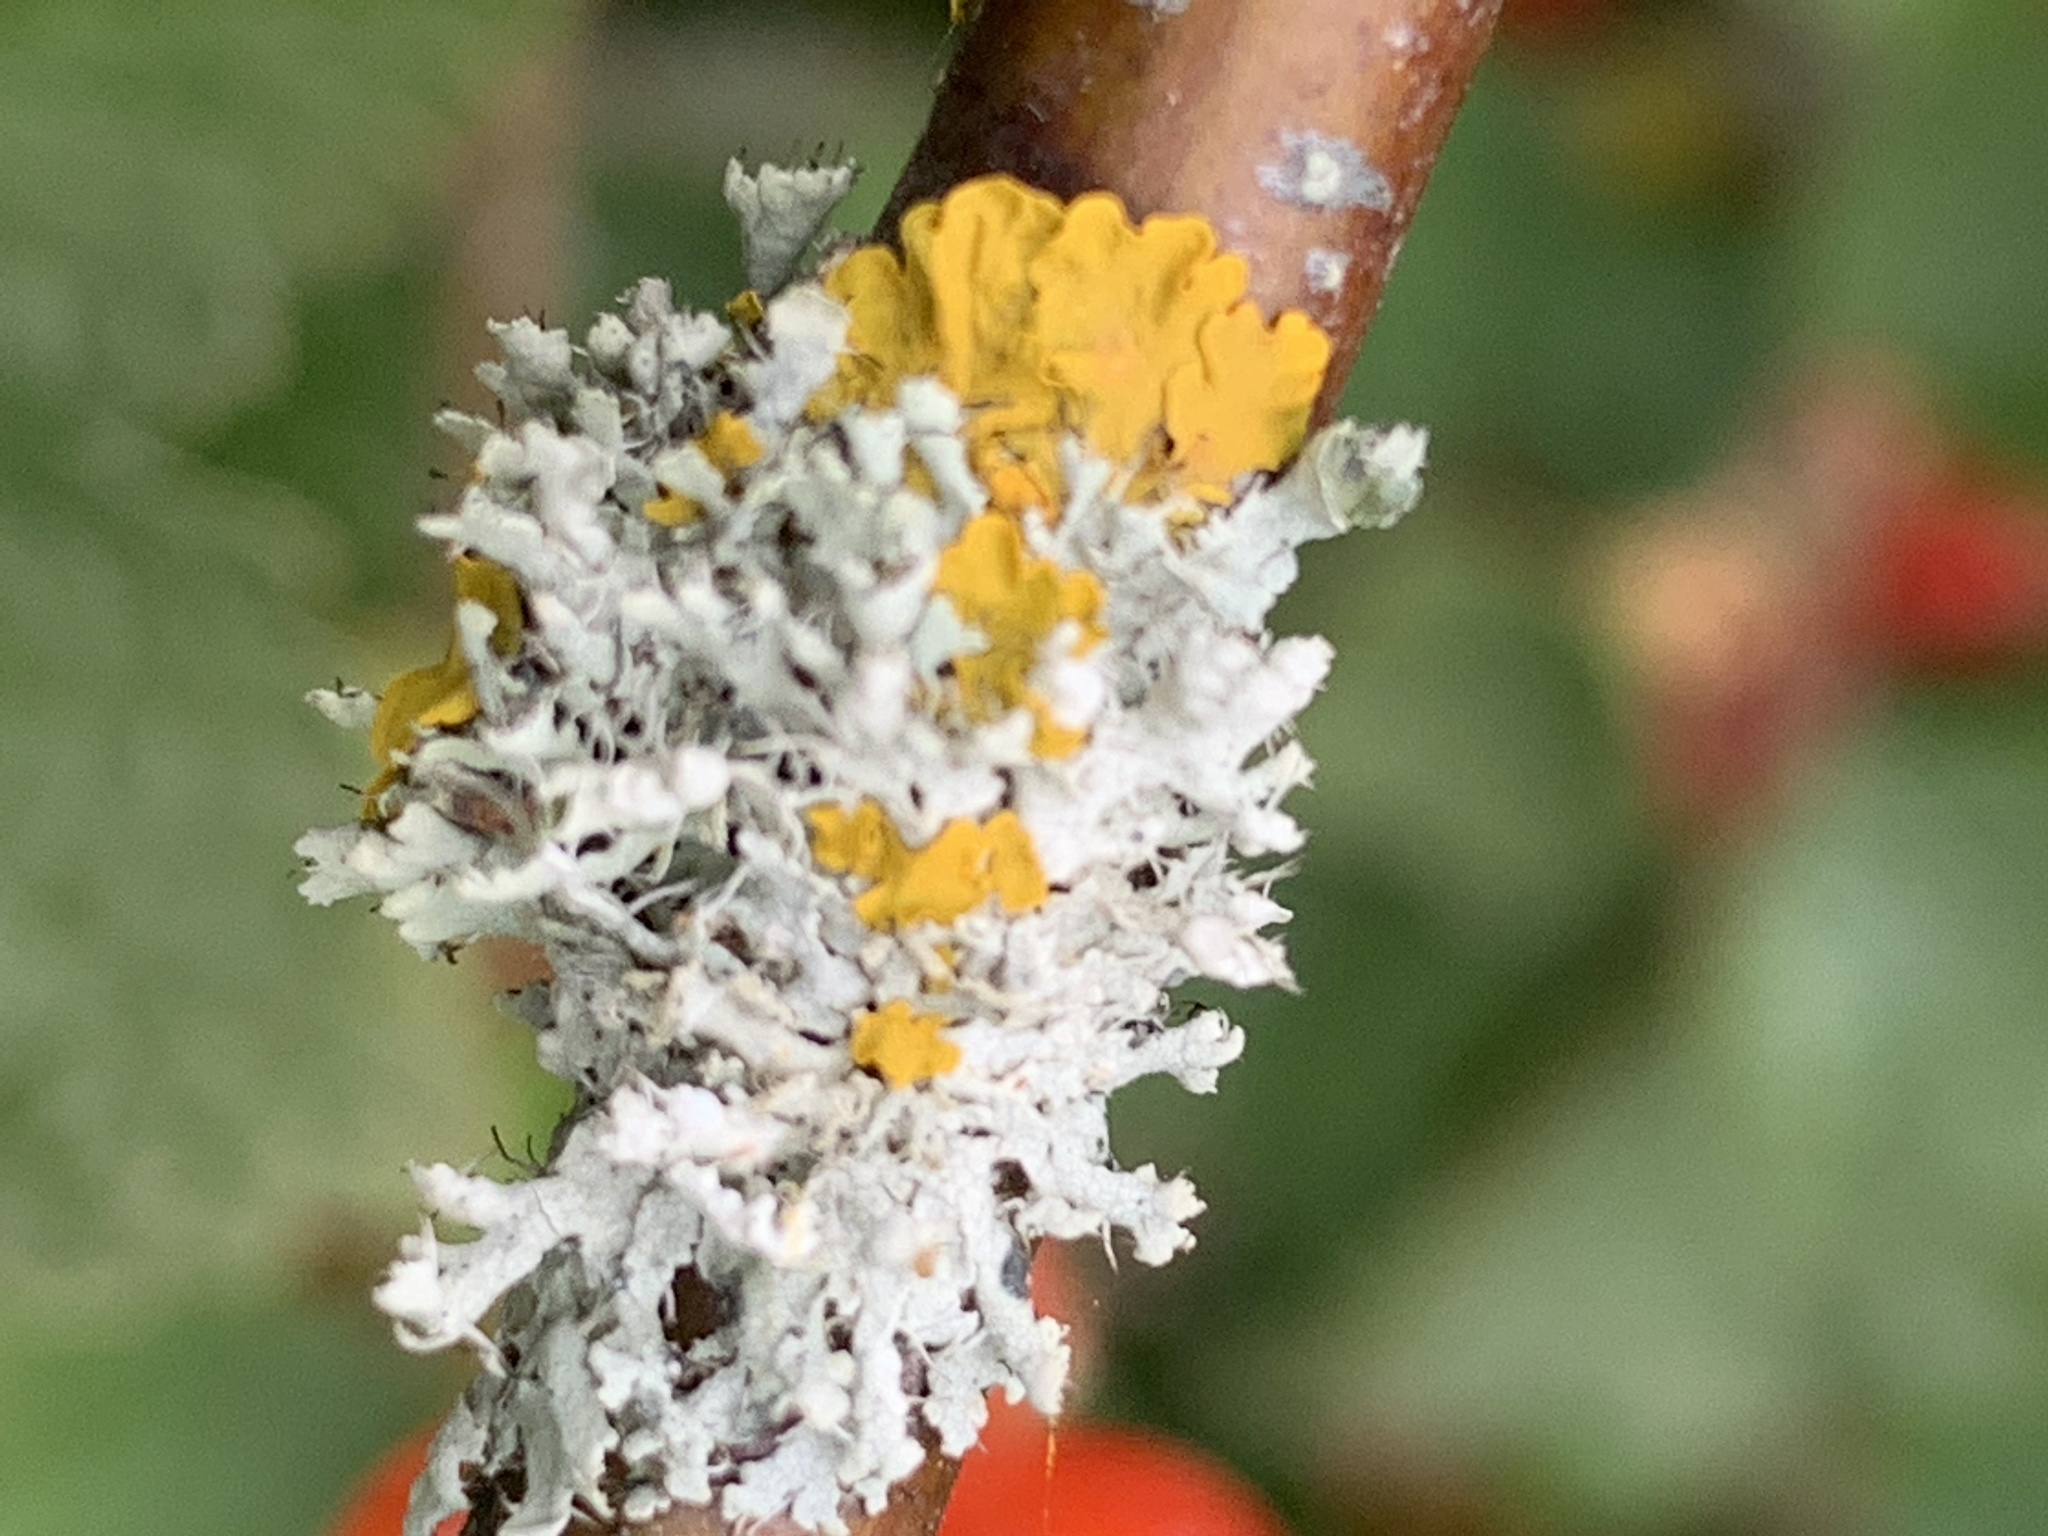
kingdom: Fungi
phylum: Ascomycota
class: Lecanoromycetes
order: Caliciales
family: Physciaceae
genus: Physcia
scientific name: Physcia adscendens
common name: Hooded rosette lichen
